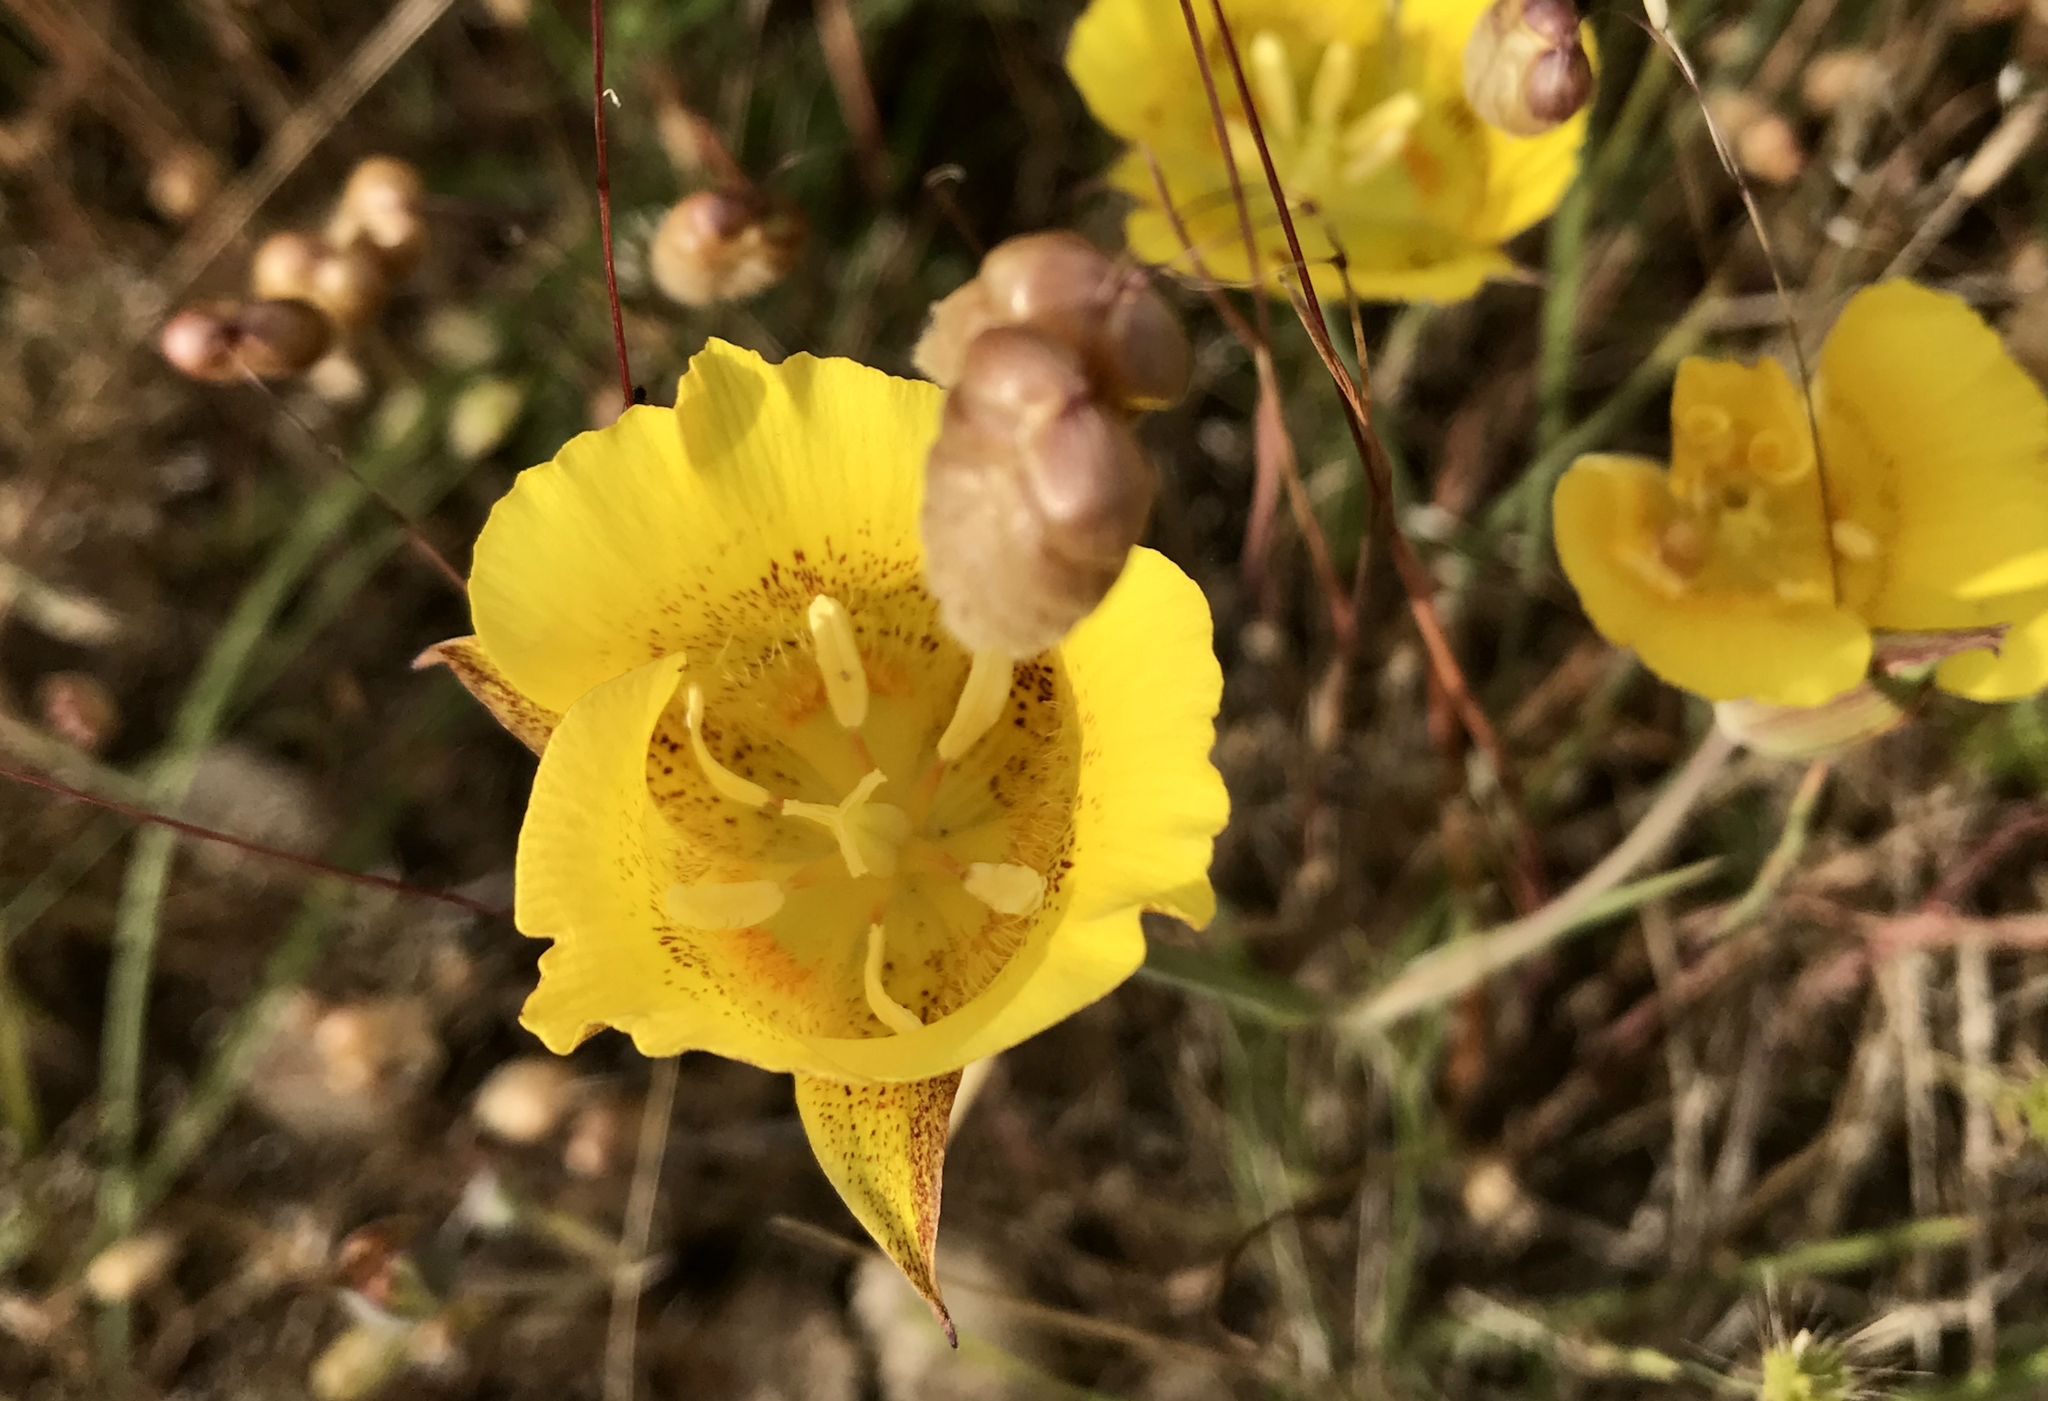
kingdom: Plantae
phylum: Tracheophyta
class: Liliopsida
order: Liliales
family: Liliaceae
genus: Calochortus
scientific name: Calochortus luteus
